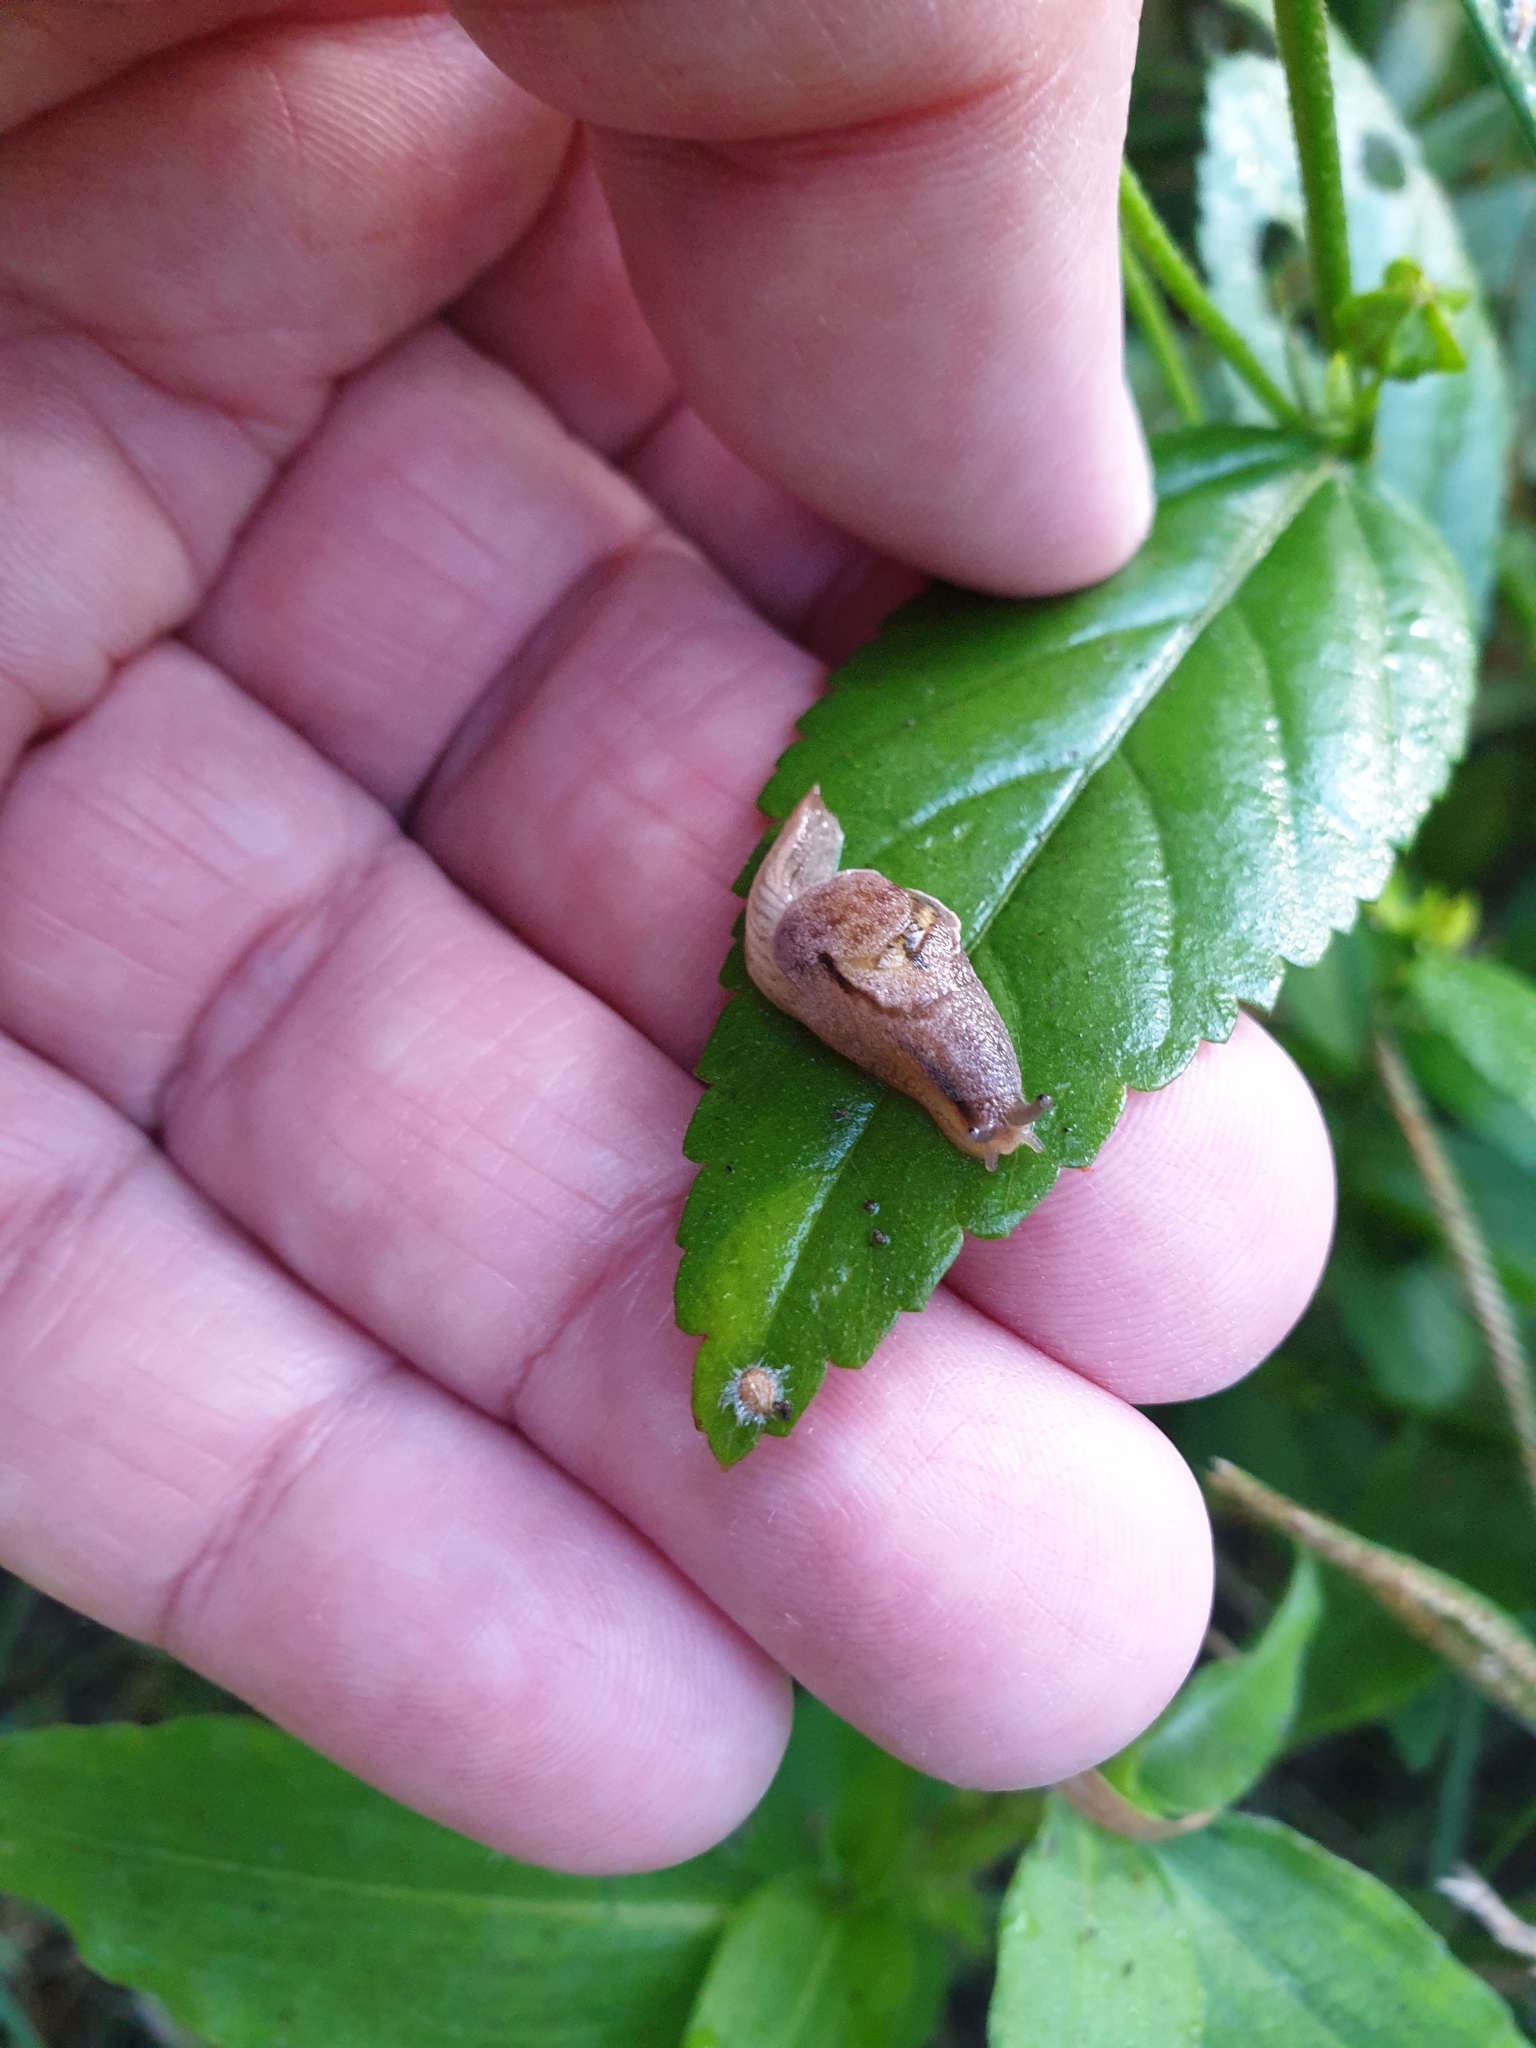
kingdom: Animalia
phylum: Mollusca
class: Gastropoda
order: Stylommatophora
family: Helicarionidae
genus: Ubiquitarion
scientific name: Ubiquitarion iridis
